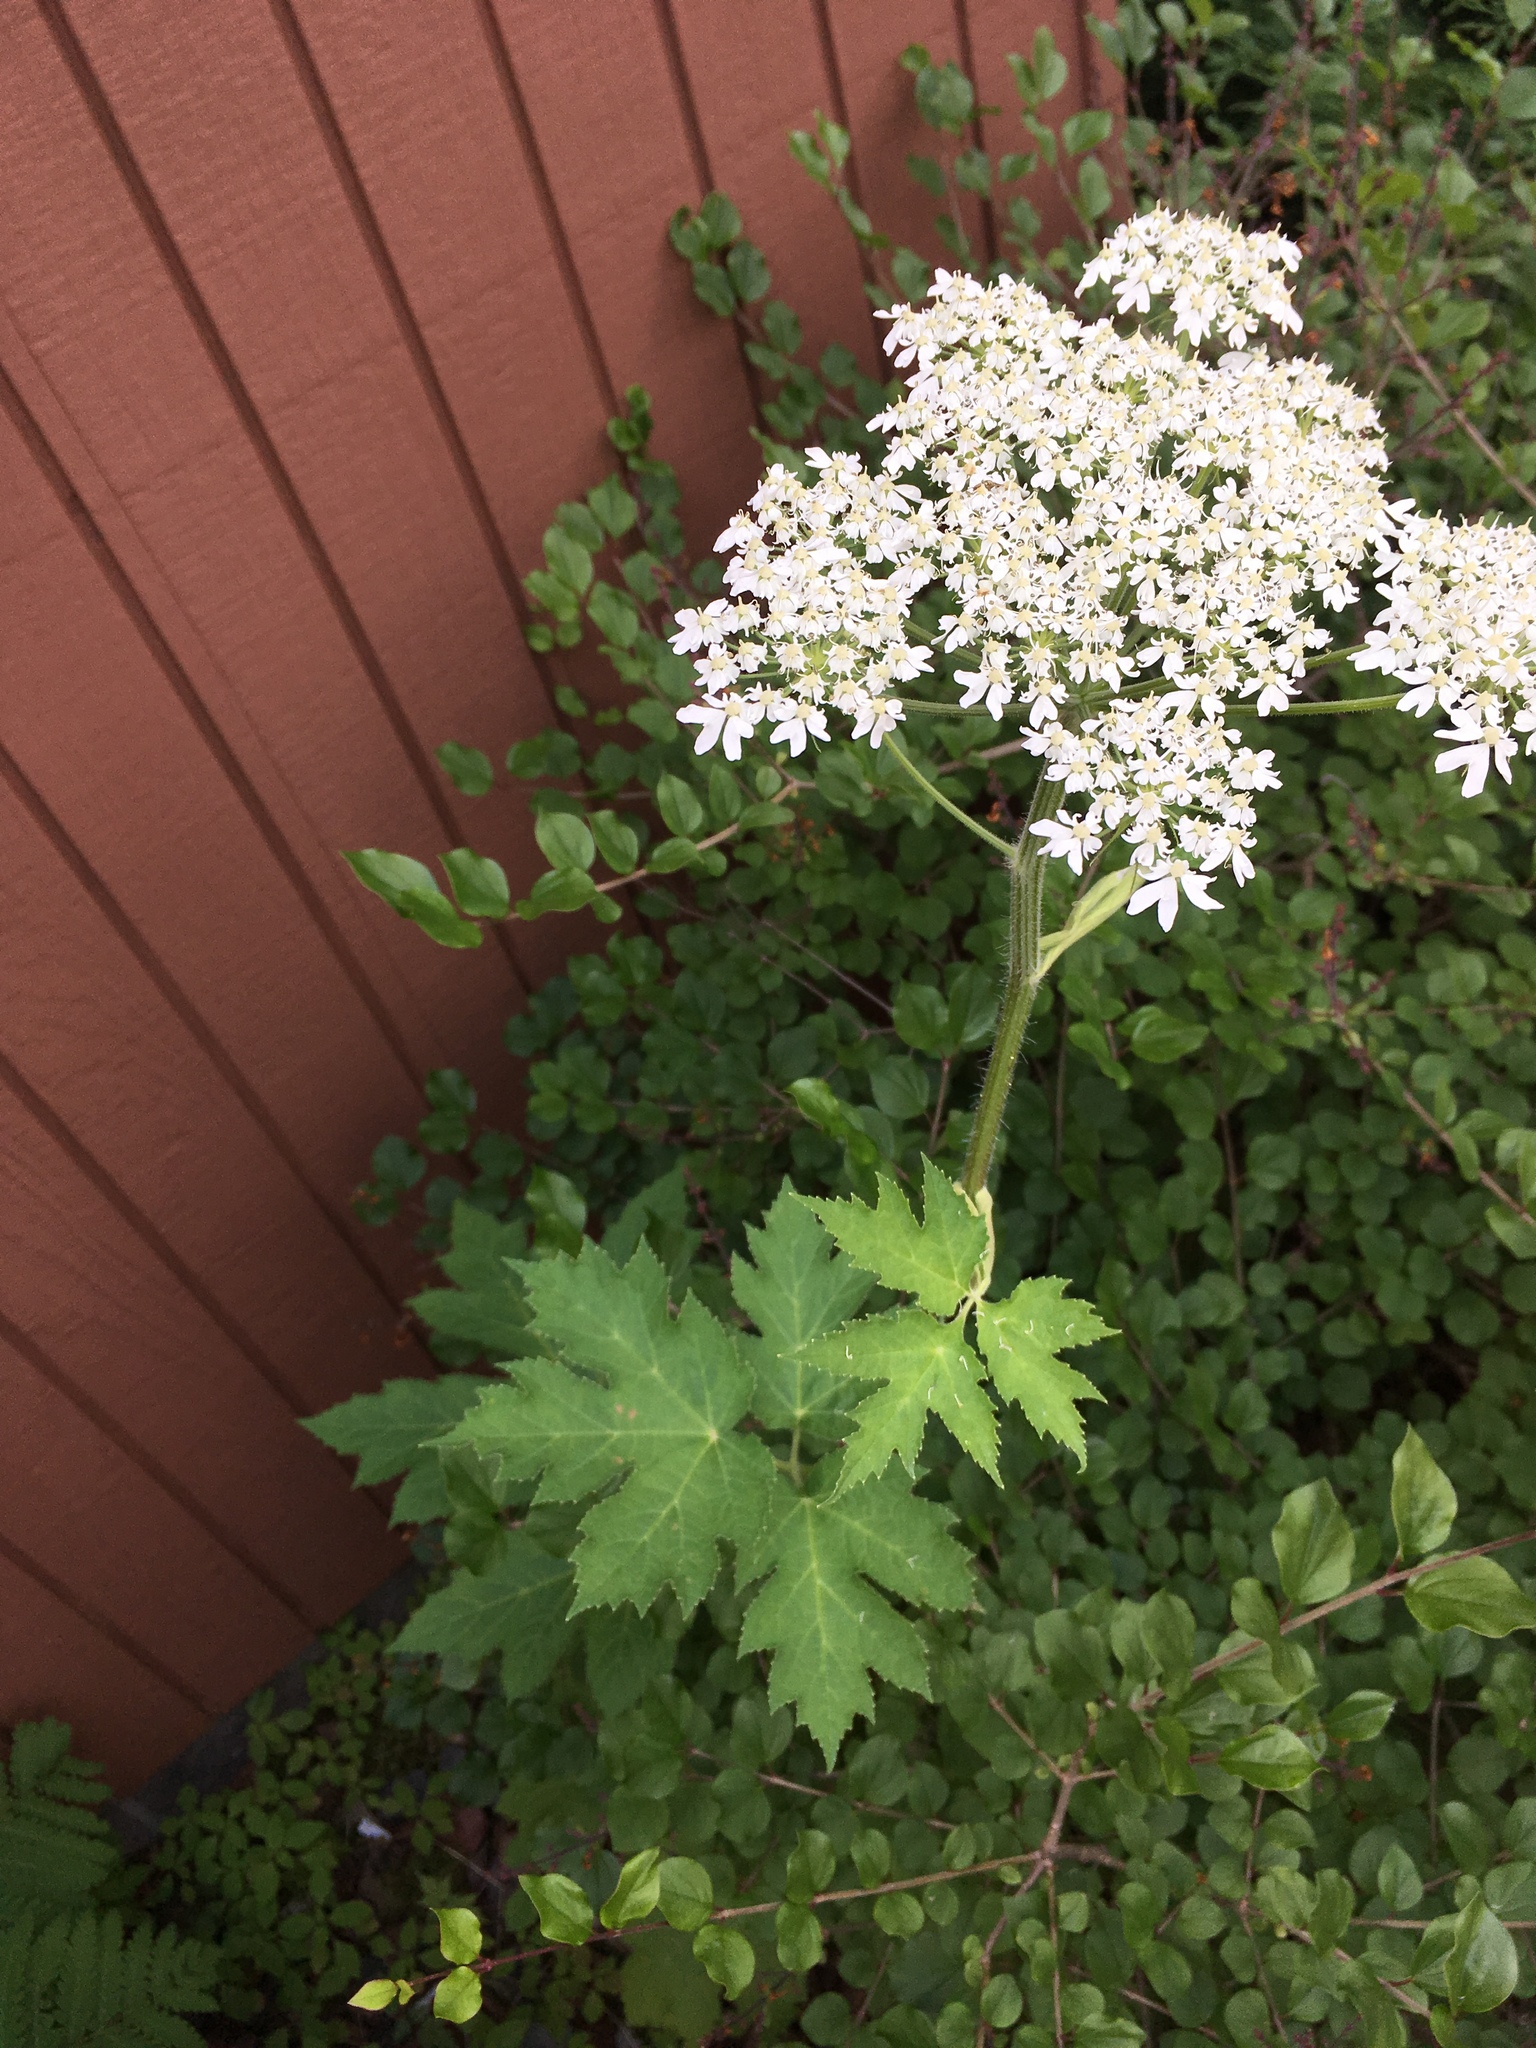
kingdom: Plantae
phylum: Tracheophyta
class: Magnoliopsida
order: Apiales
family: Apiaceae
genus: Heracleum
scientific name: Heracleum maximum
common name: American cow parsnip
